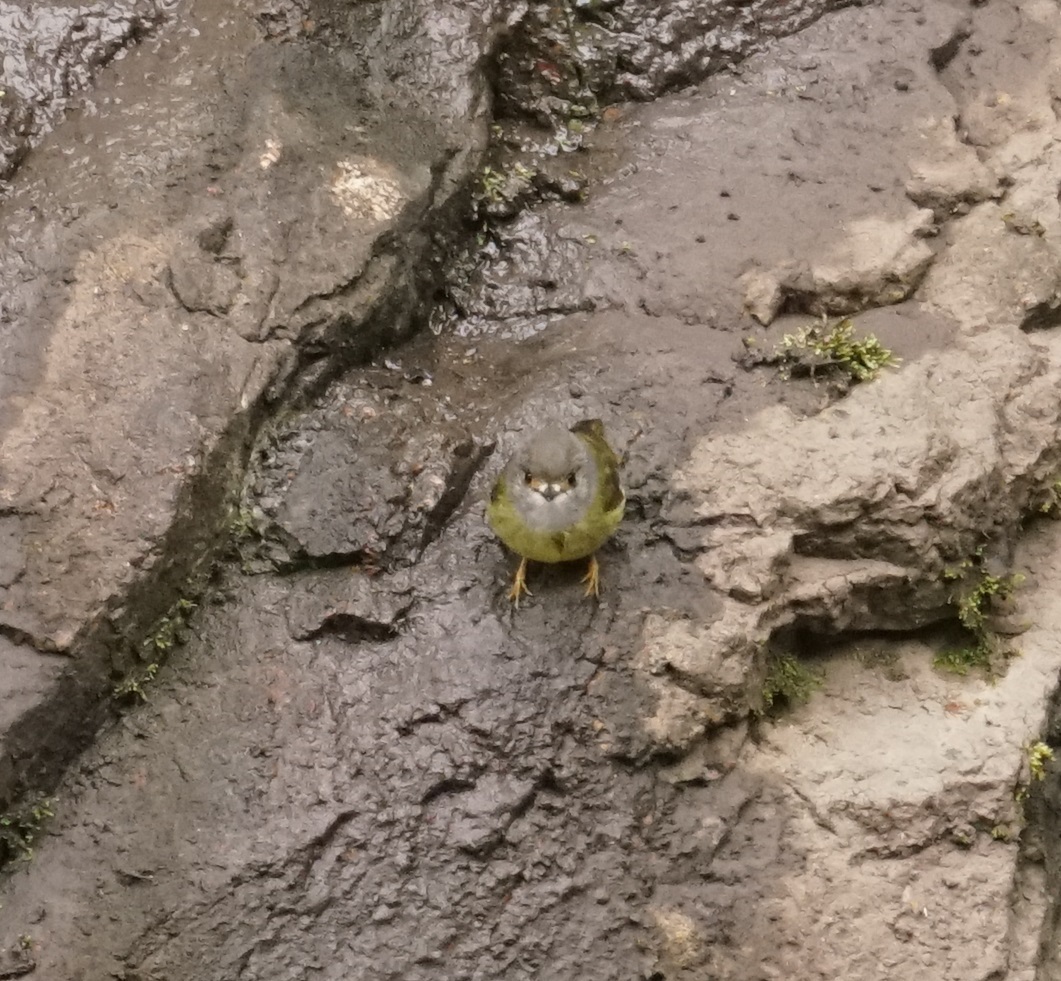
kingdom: Animalia
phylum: Chordata
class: Aves
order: Passeriformes
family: Petroicidae
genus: Eopsaltria
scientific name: Eopsaltria
